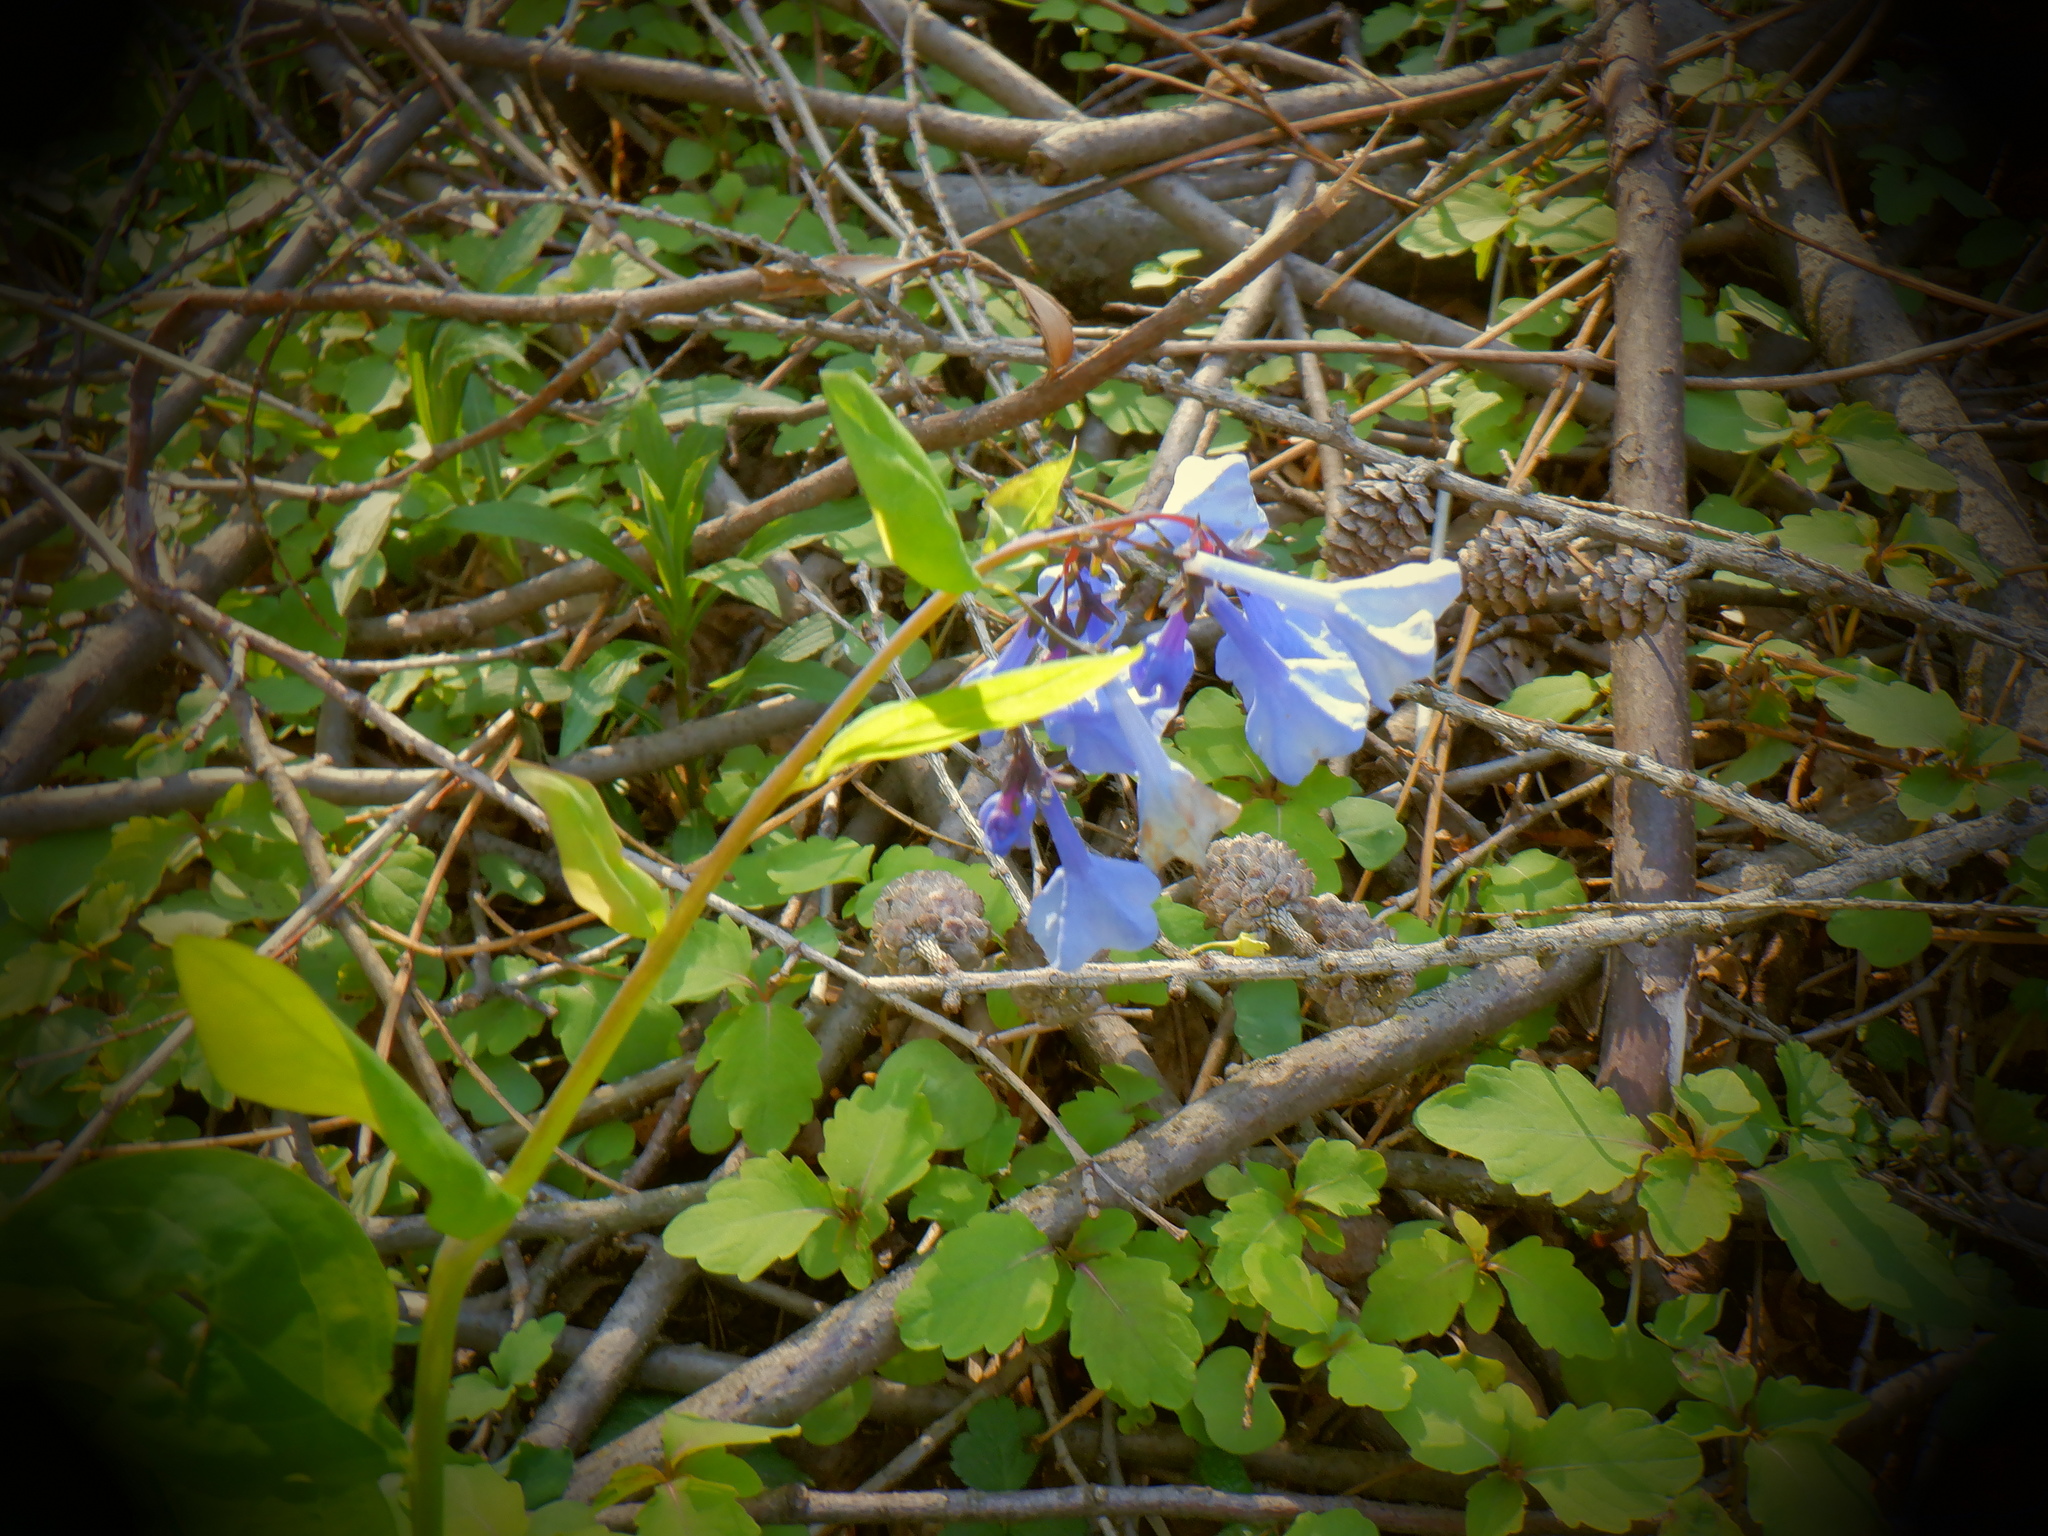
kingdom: Plantae
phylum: Tracheophyta
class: Magnoliopsida
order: Boraginales
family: Boraginaceae
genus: Mertensia
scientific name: Mertensia virginica
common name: Virginia bluebells
